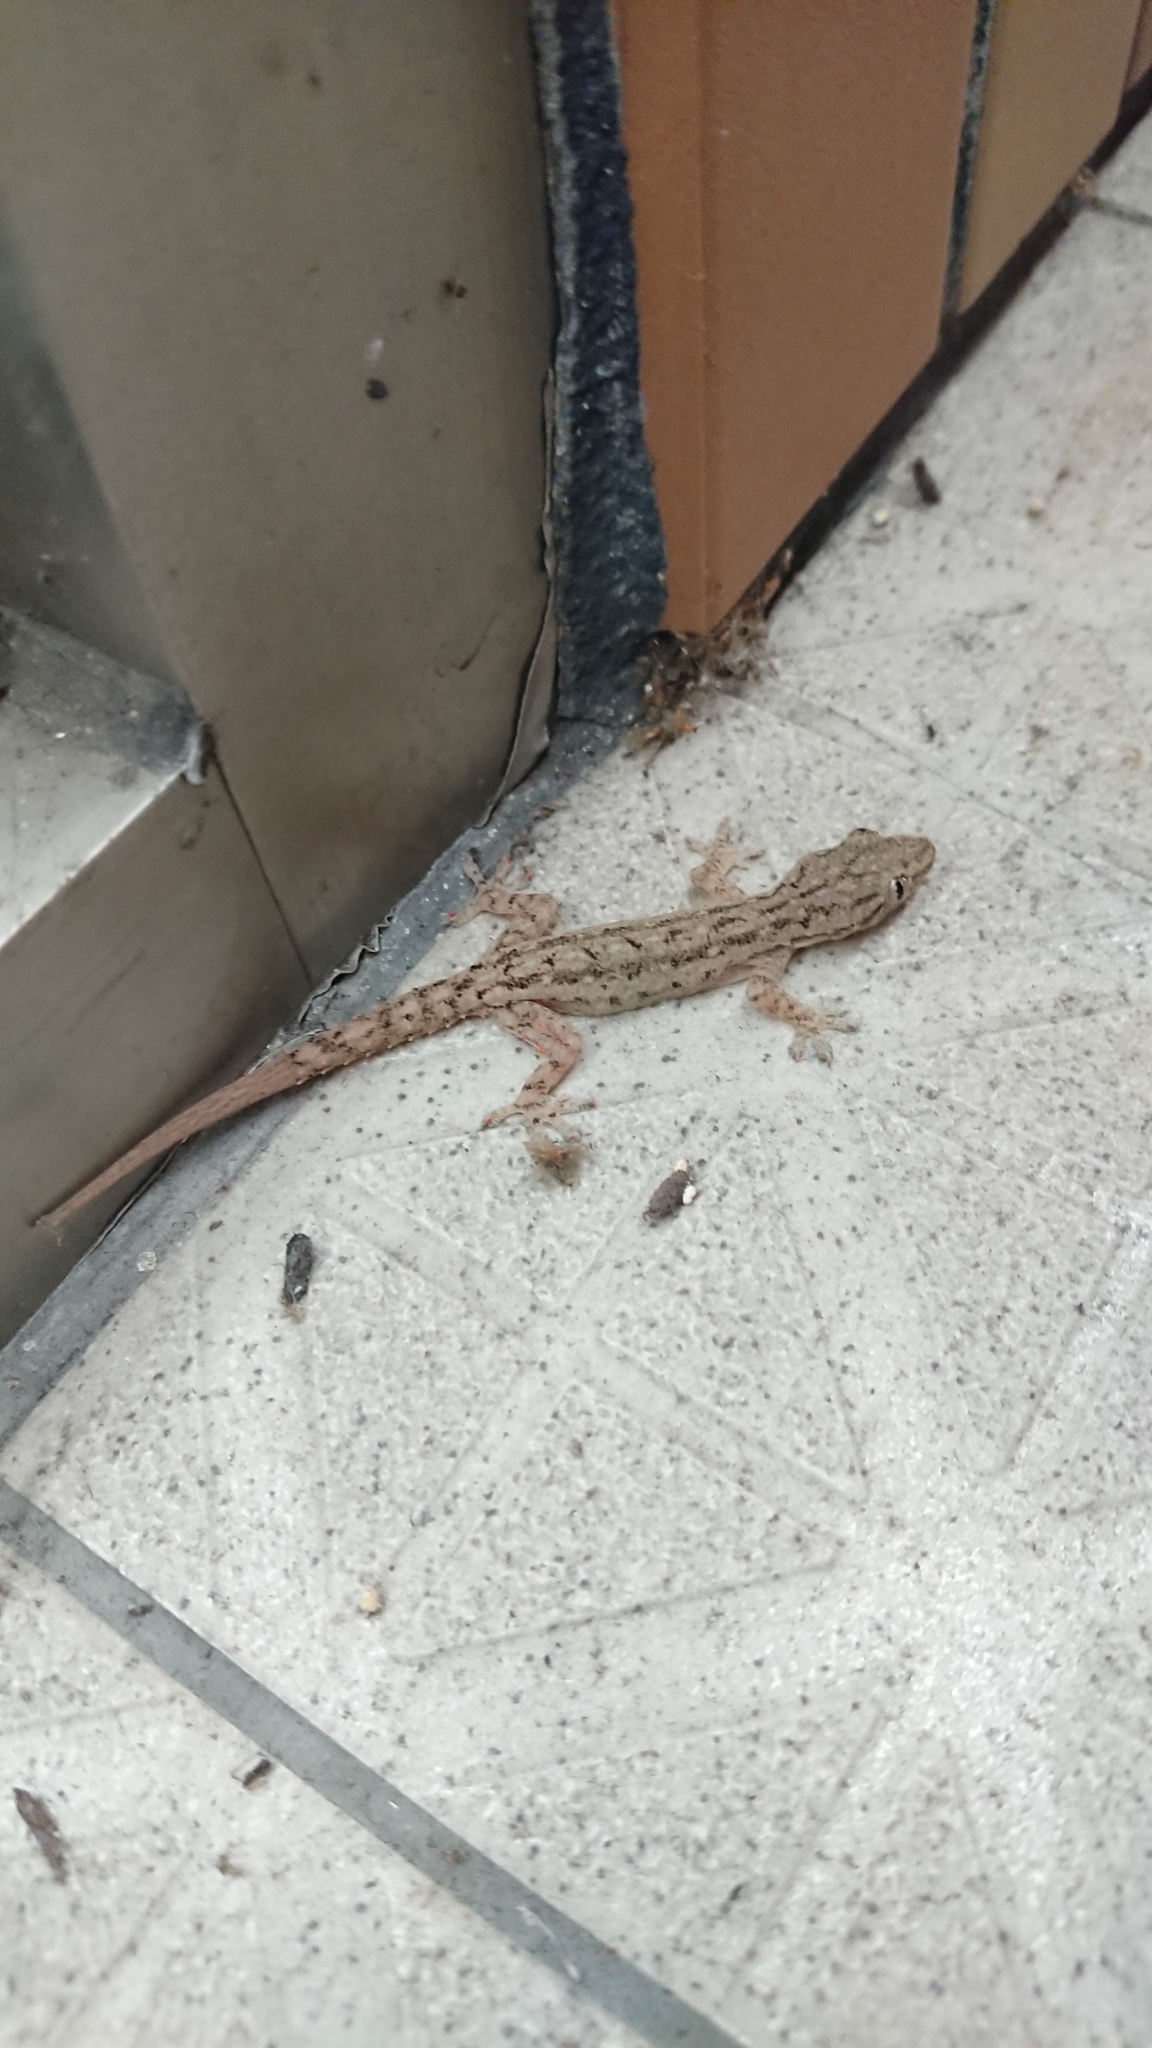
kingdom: Animalia
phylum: Chordata
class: Squamata
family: Gekkonidae
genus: Hemidactylus
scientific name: Hemidactylus frenatus
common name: Common house gecko
